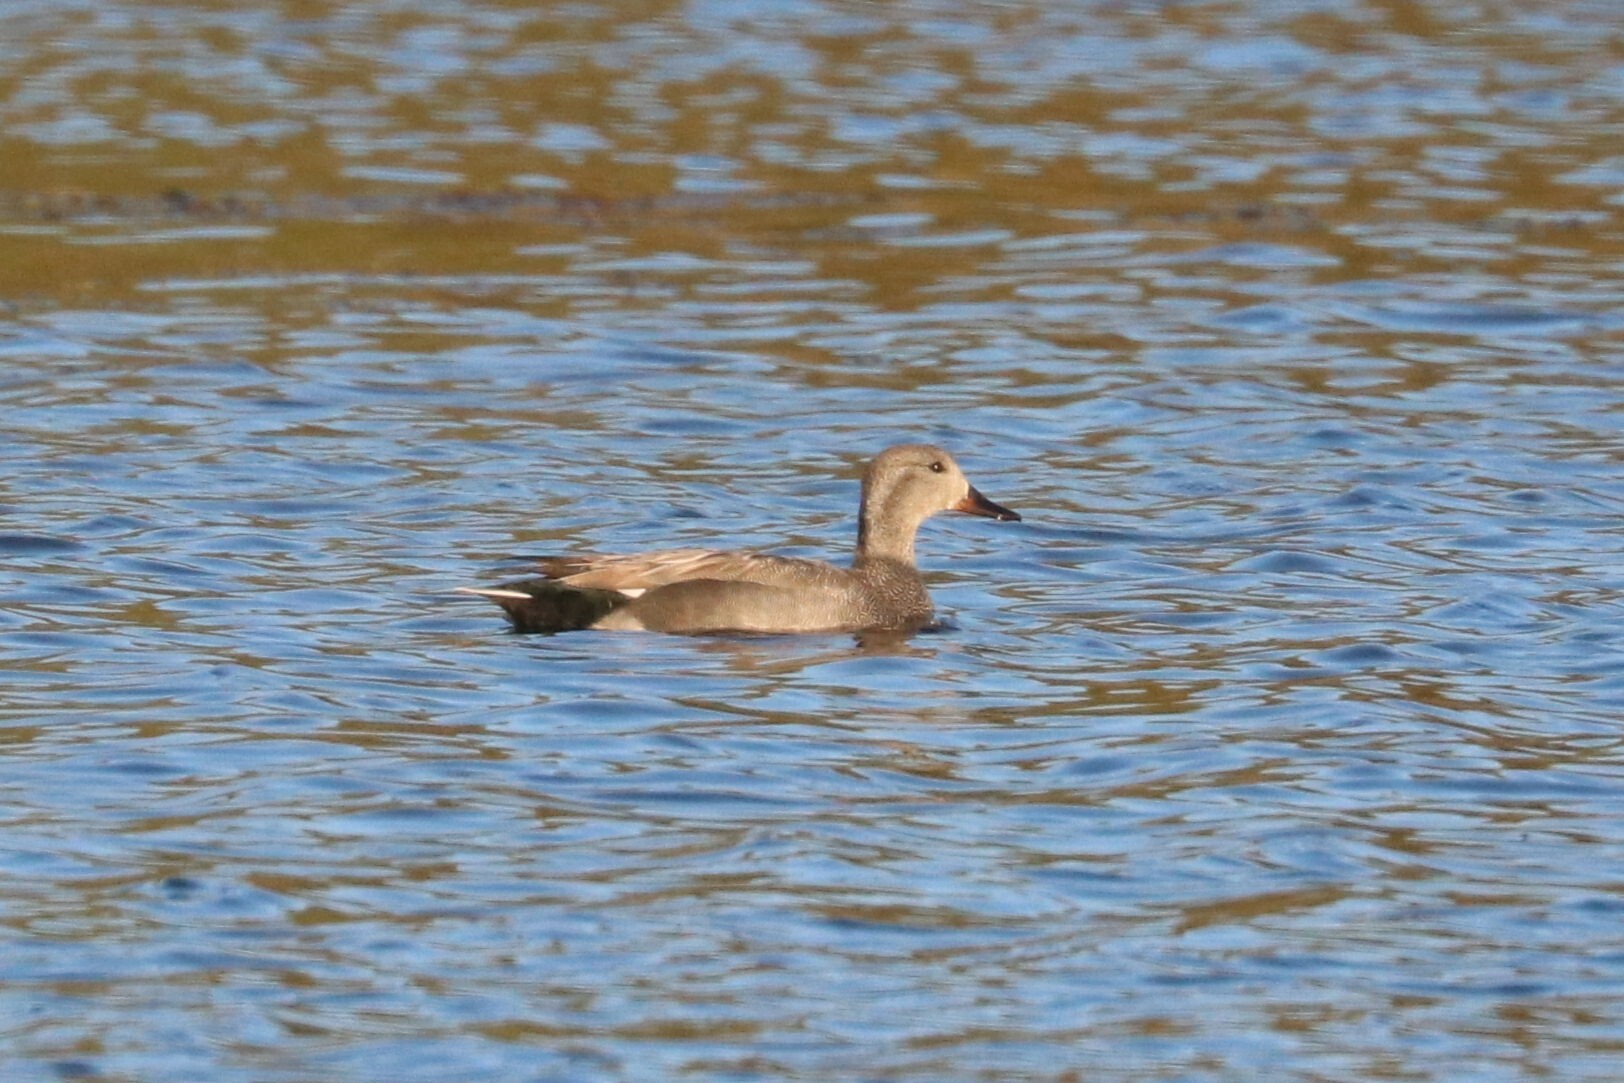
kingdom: Animalia
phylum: Chordata
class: Aves
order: Anseriformes
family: Anatidae
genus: Mareca
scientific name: Mareca strepera
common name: Gadwall
